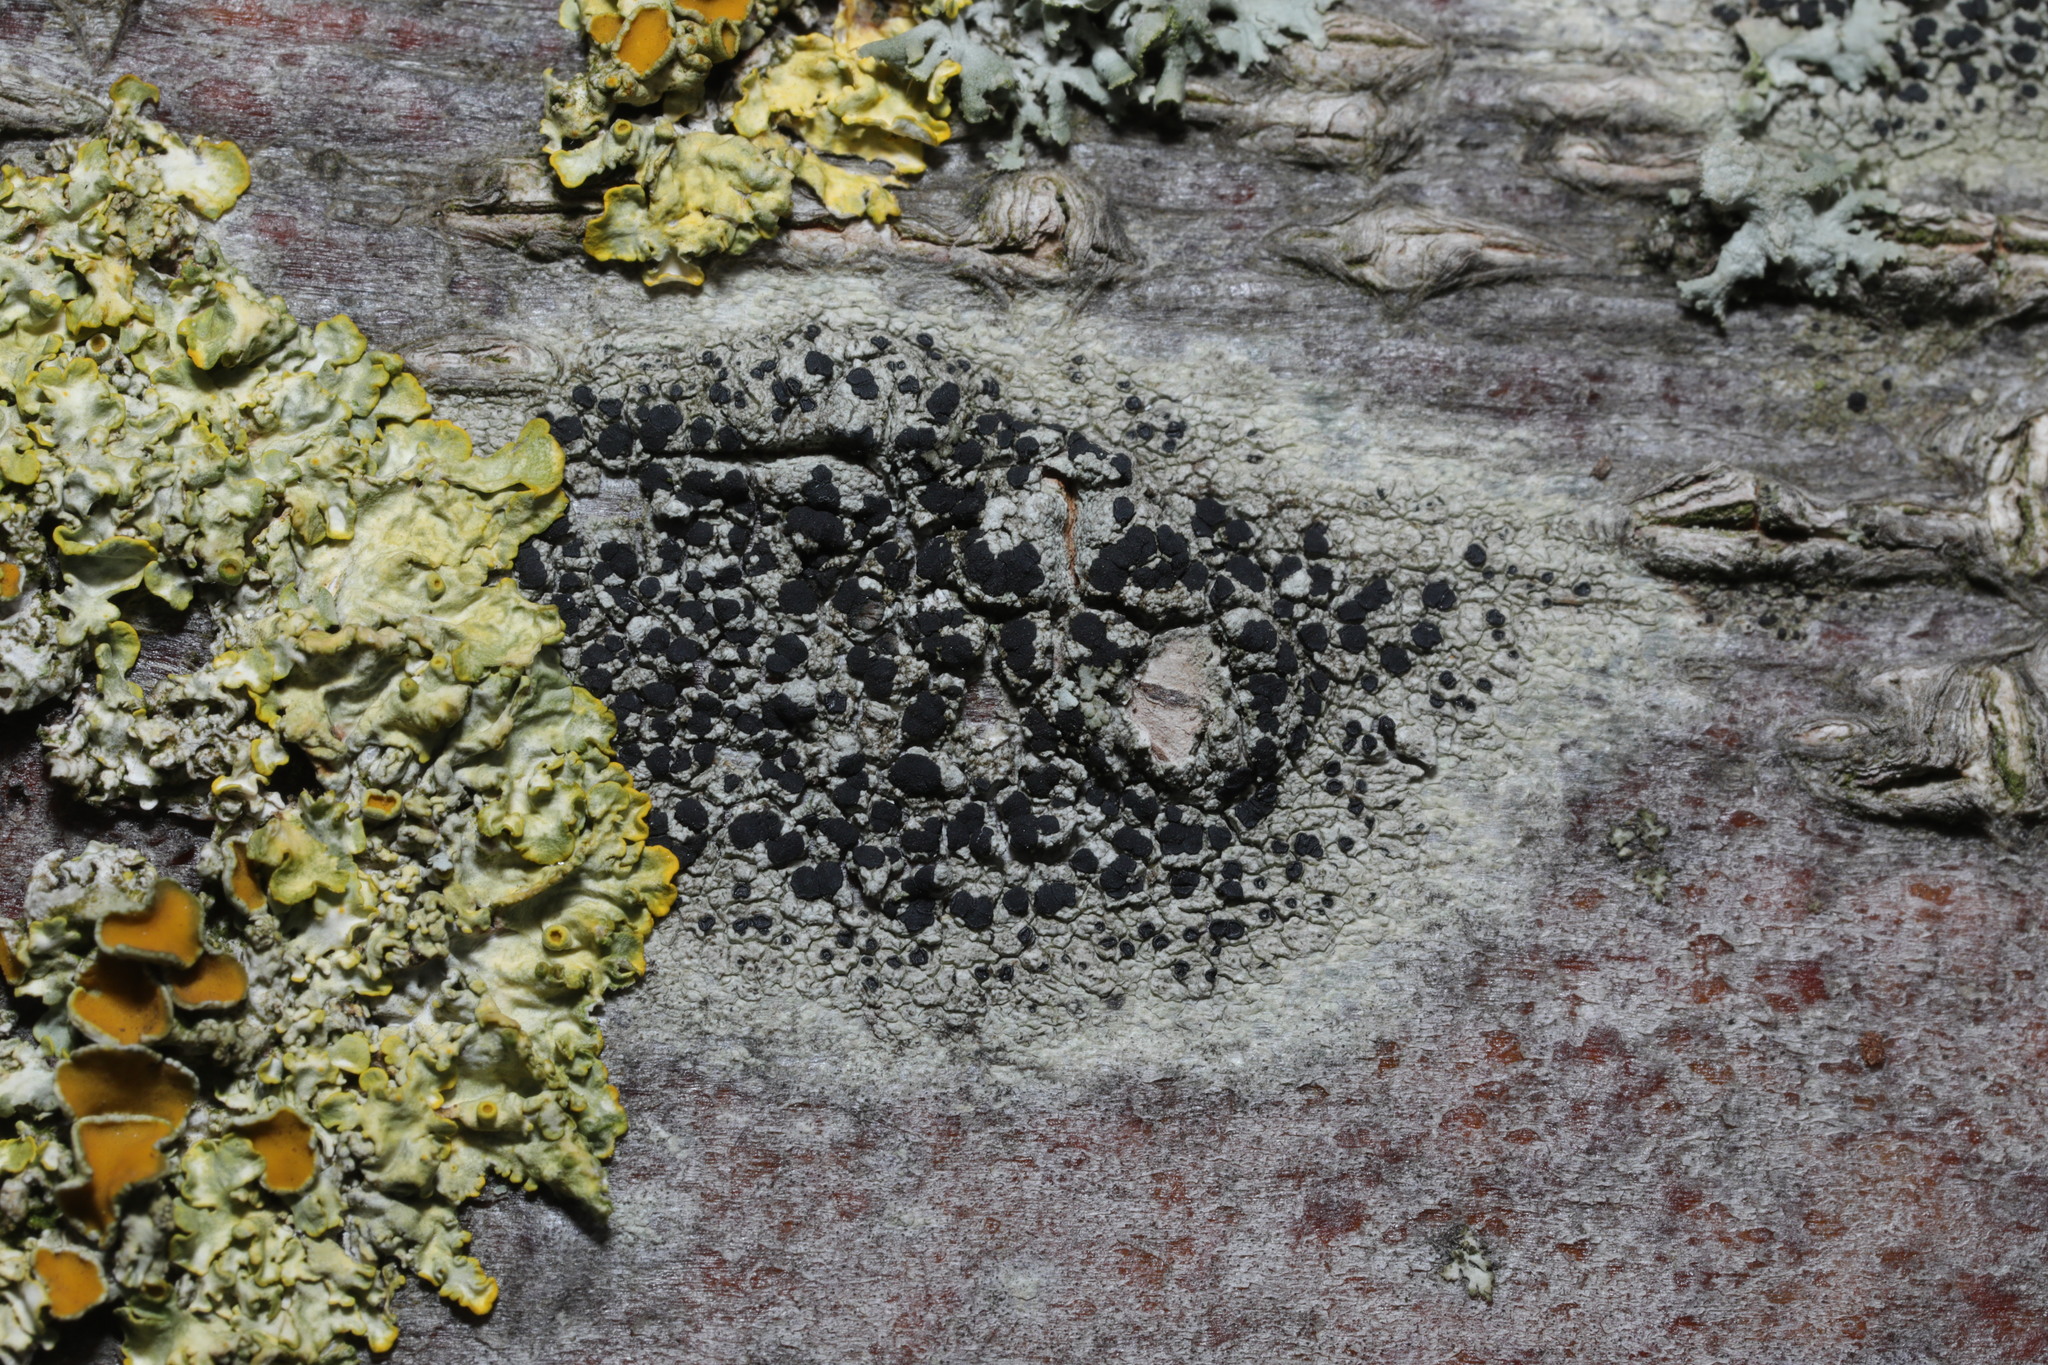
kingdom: Fungi
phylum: Ascomycota
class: Lecanoromycetes
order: Lecanorales
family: Lecanoraceae
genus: Lecidella
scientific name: Lecidella elaeochroma
